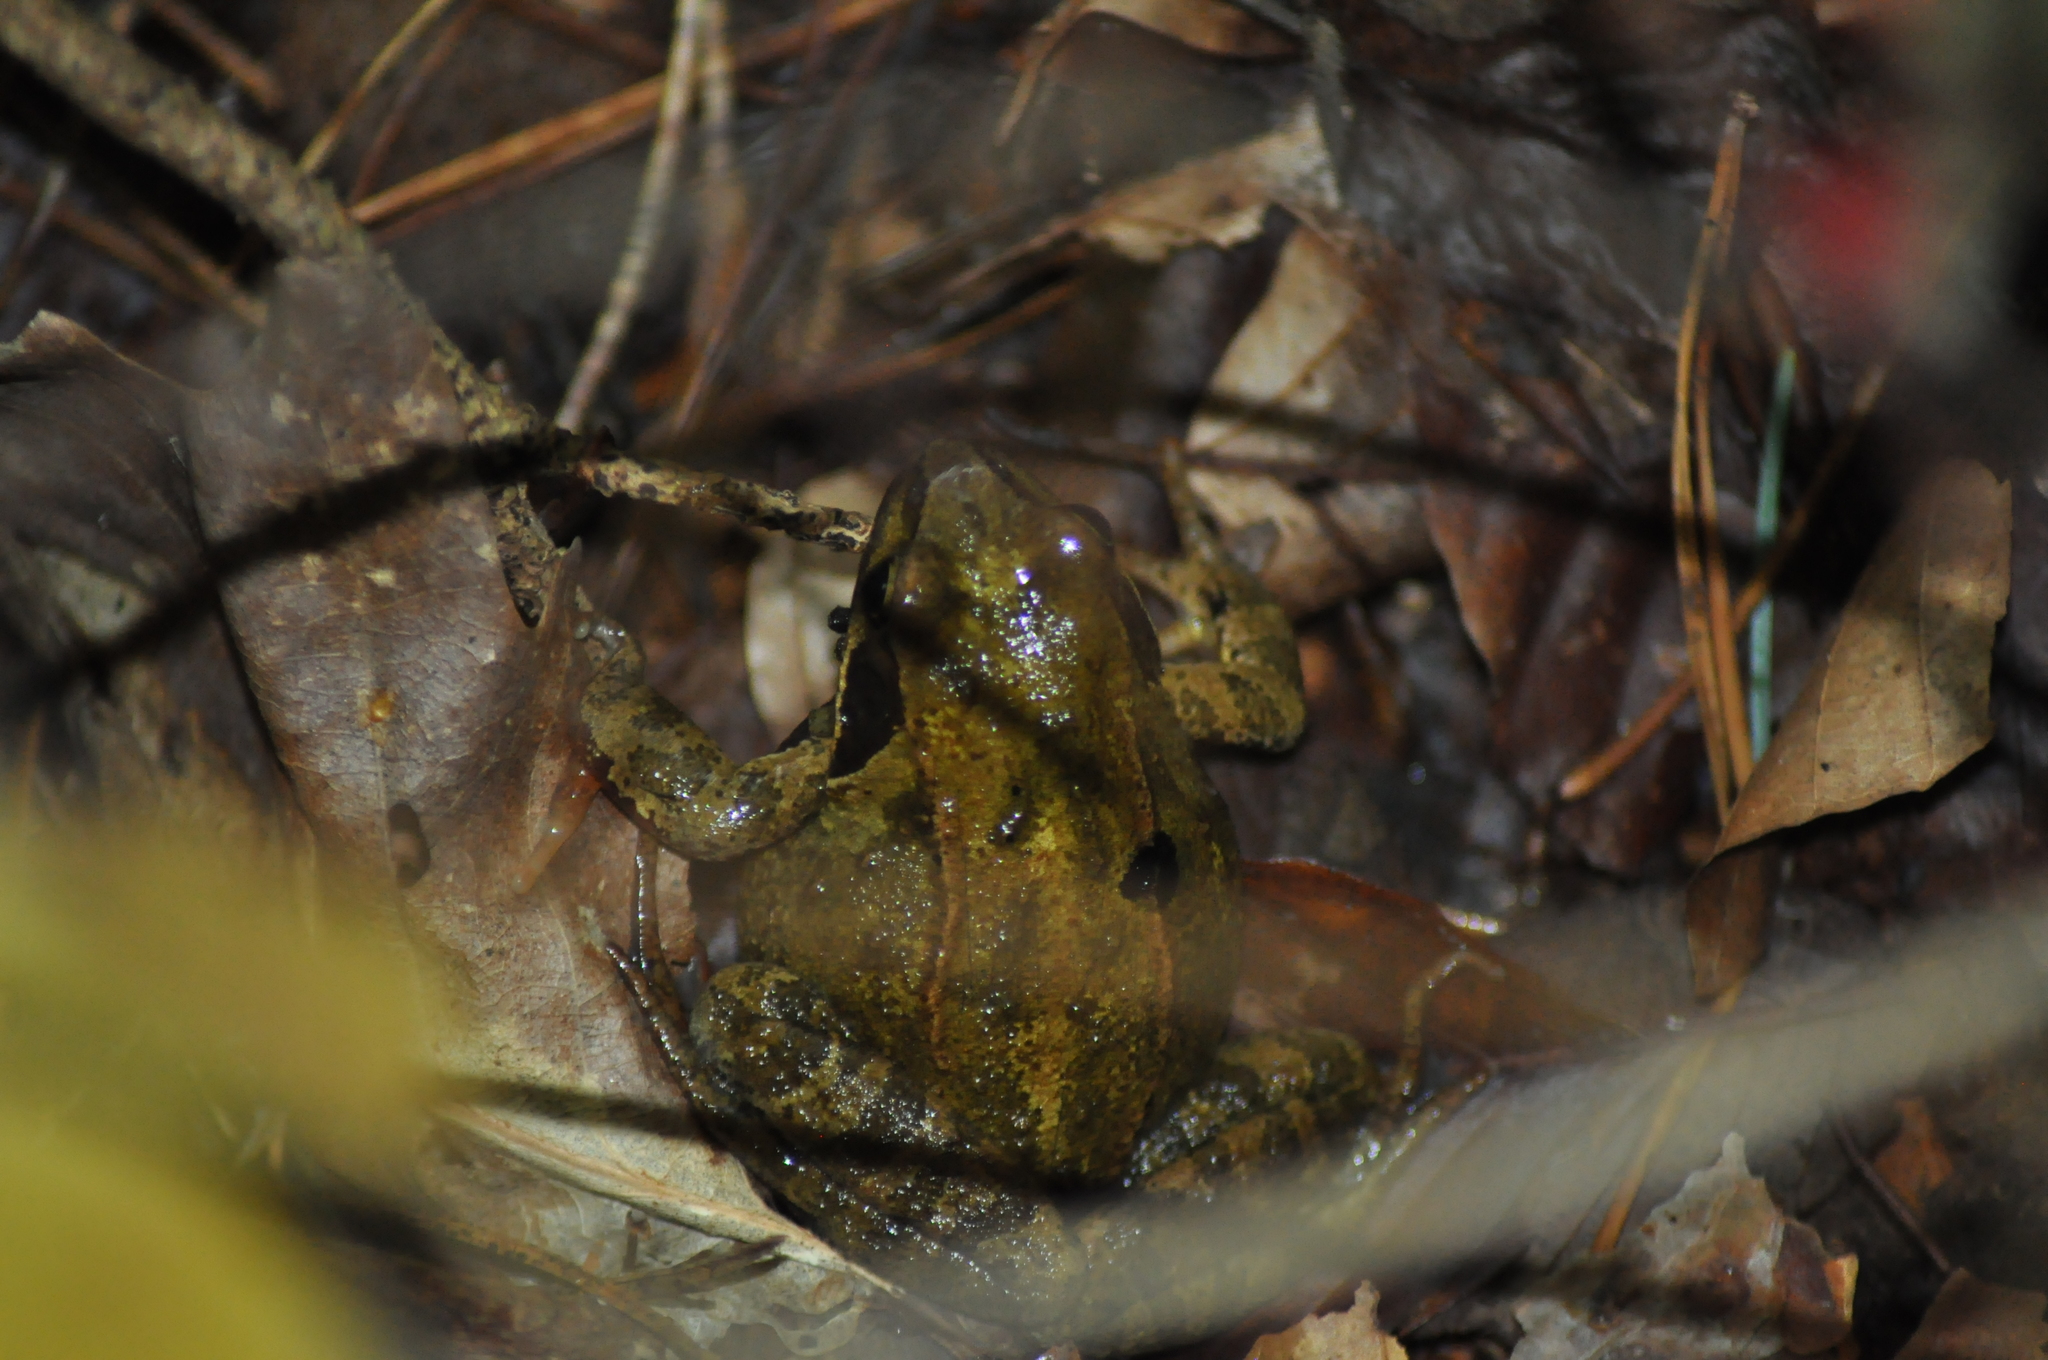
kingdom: Animalia
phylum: Chordata
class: Amphibia
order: Anura
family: Ranidae
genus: Rana
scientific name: Rana temporaria
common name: Common frog
